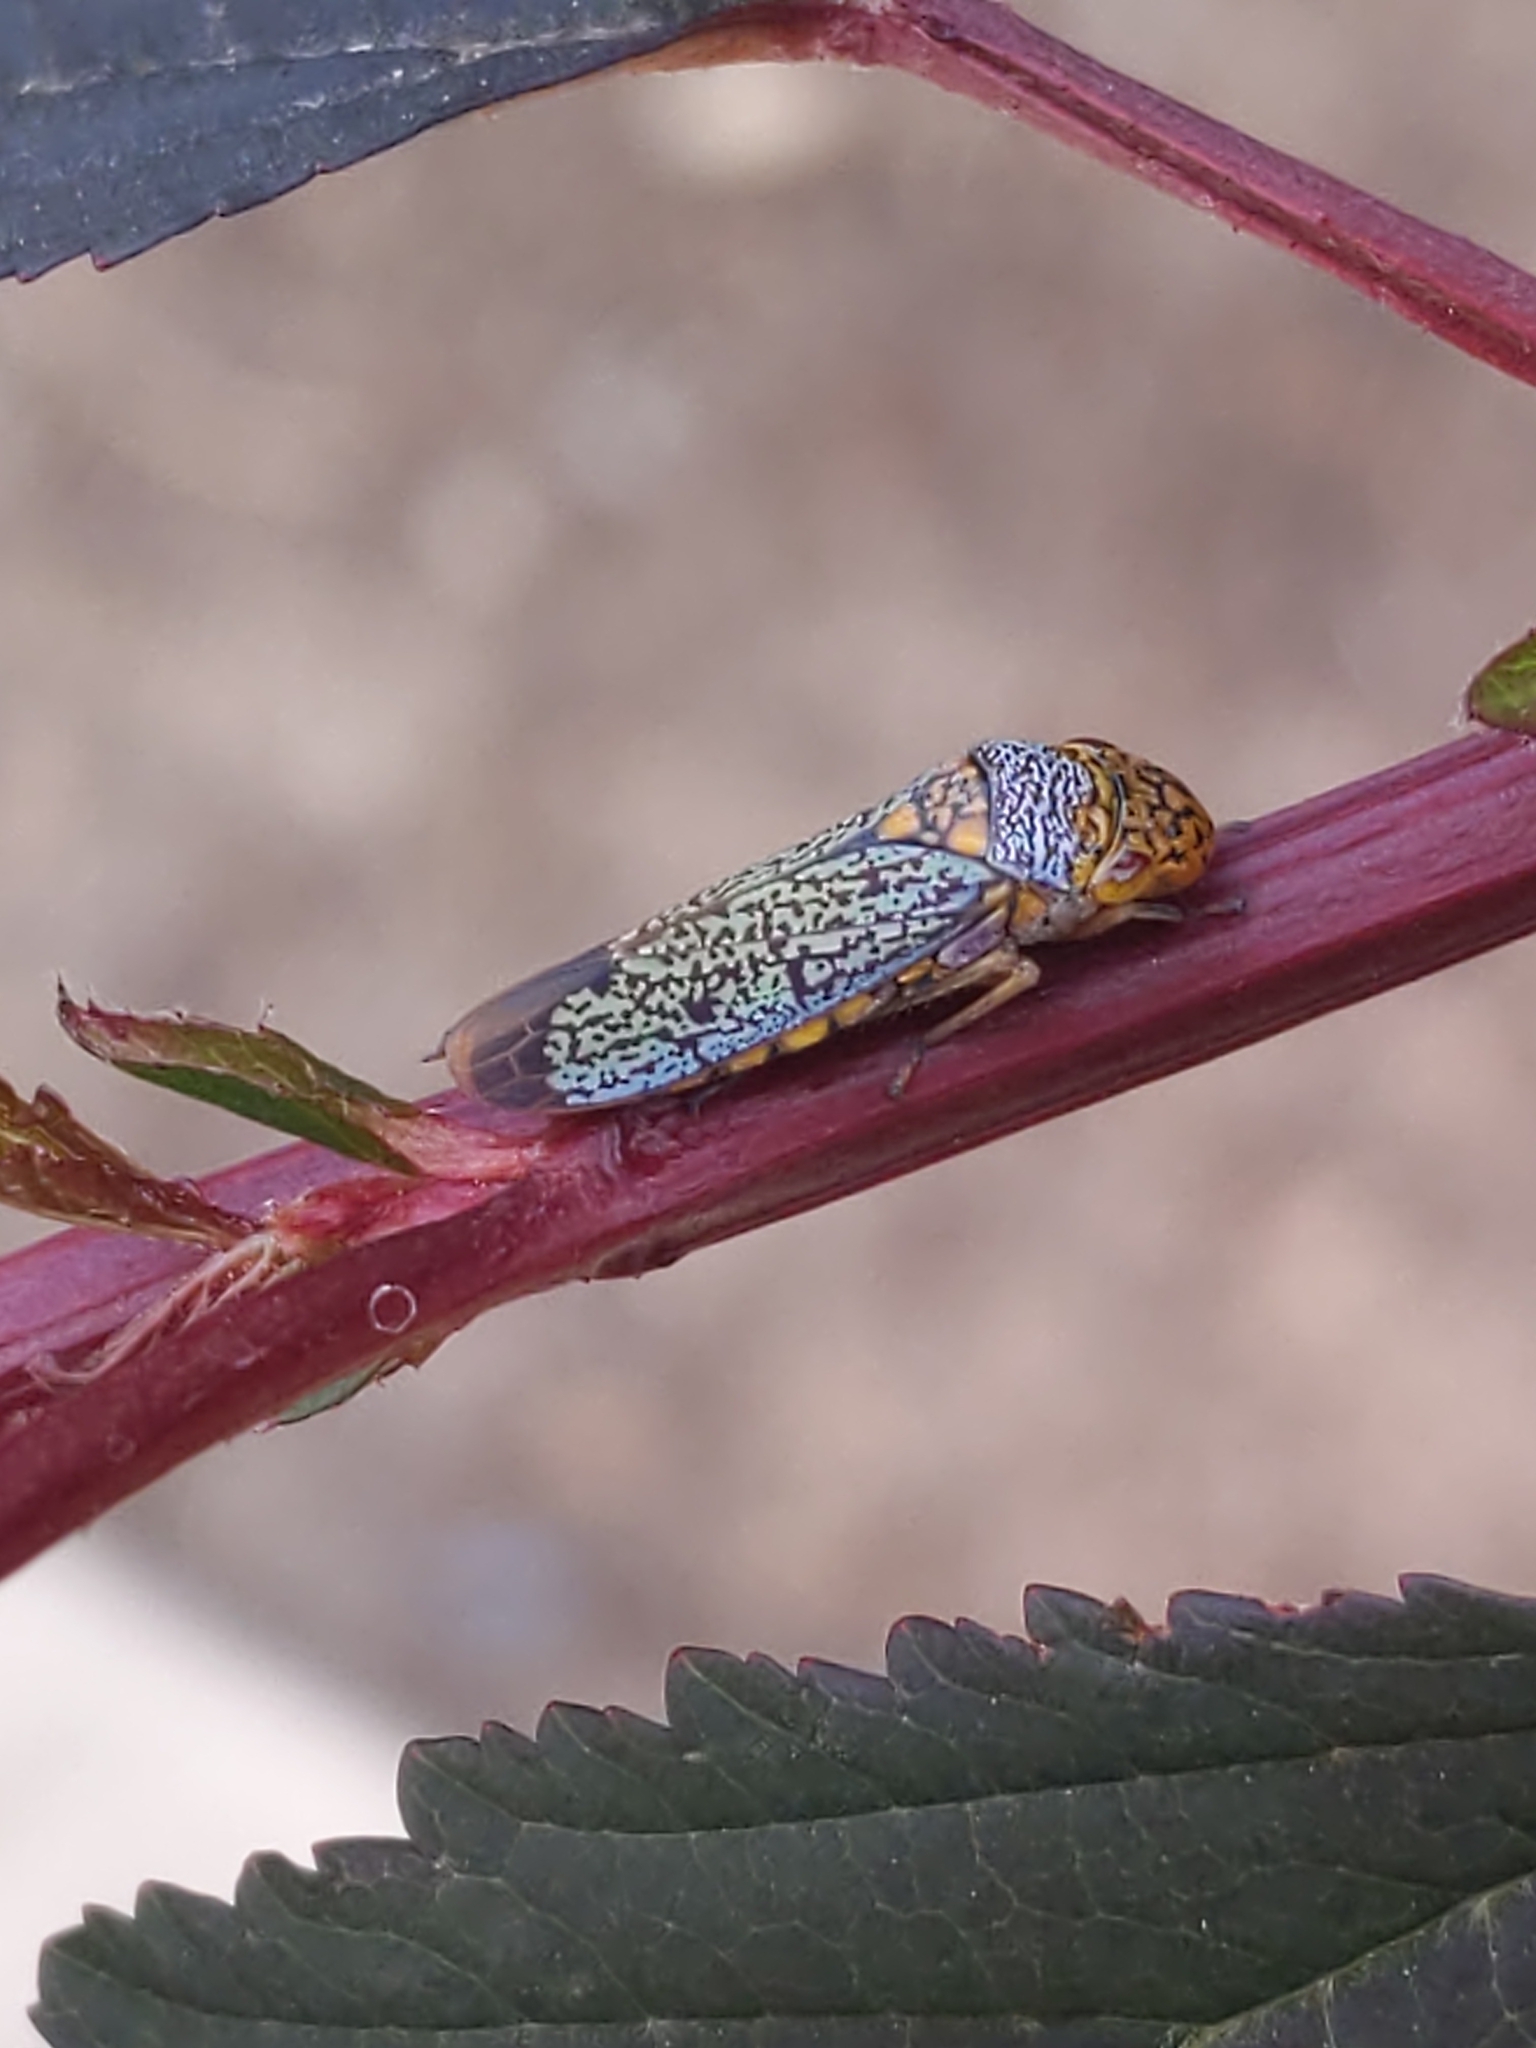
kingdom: Animalia
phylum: Arthropoda
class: Insecta
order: Hemiptera
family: Cicadellidae
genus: Oncometopia
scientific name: Oncometopia orbona
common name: Broad-headed sharpshooter
